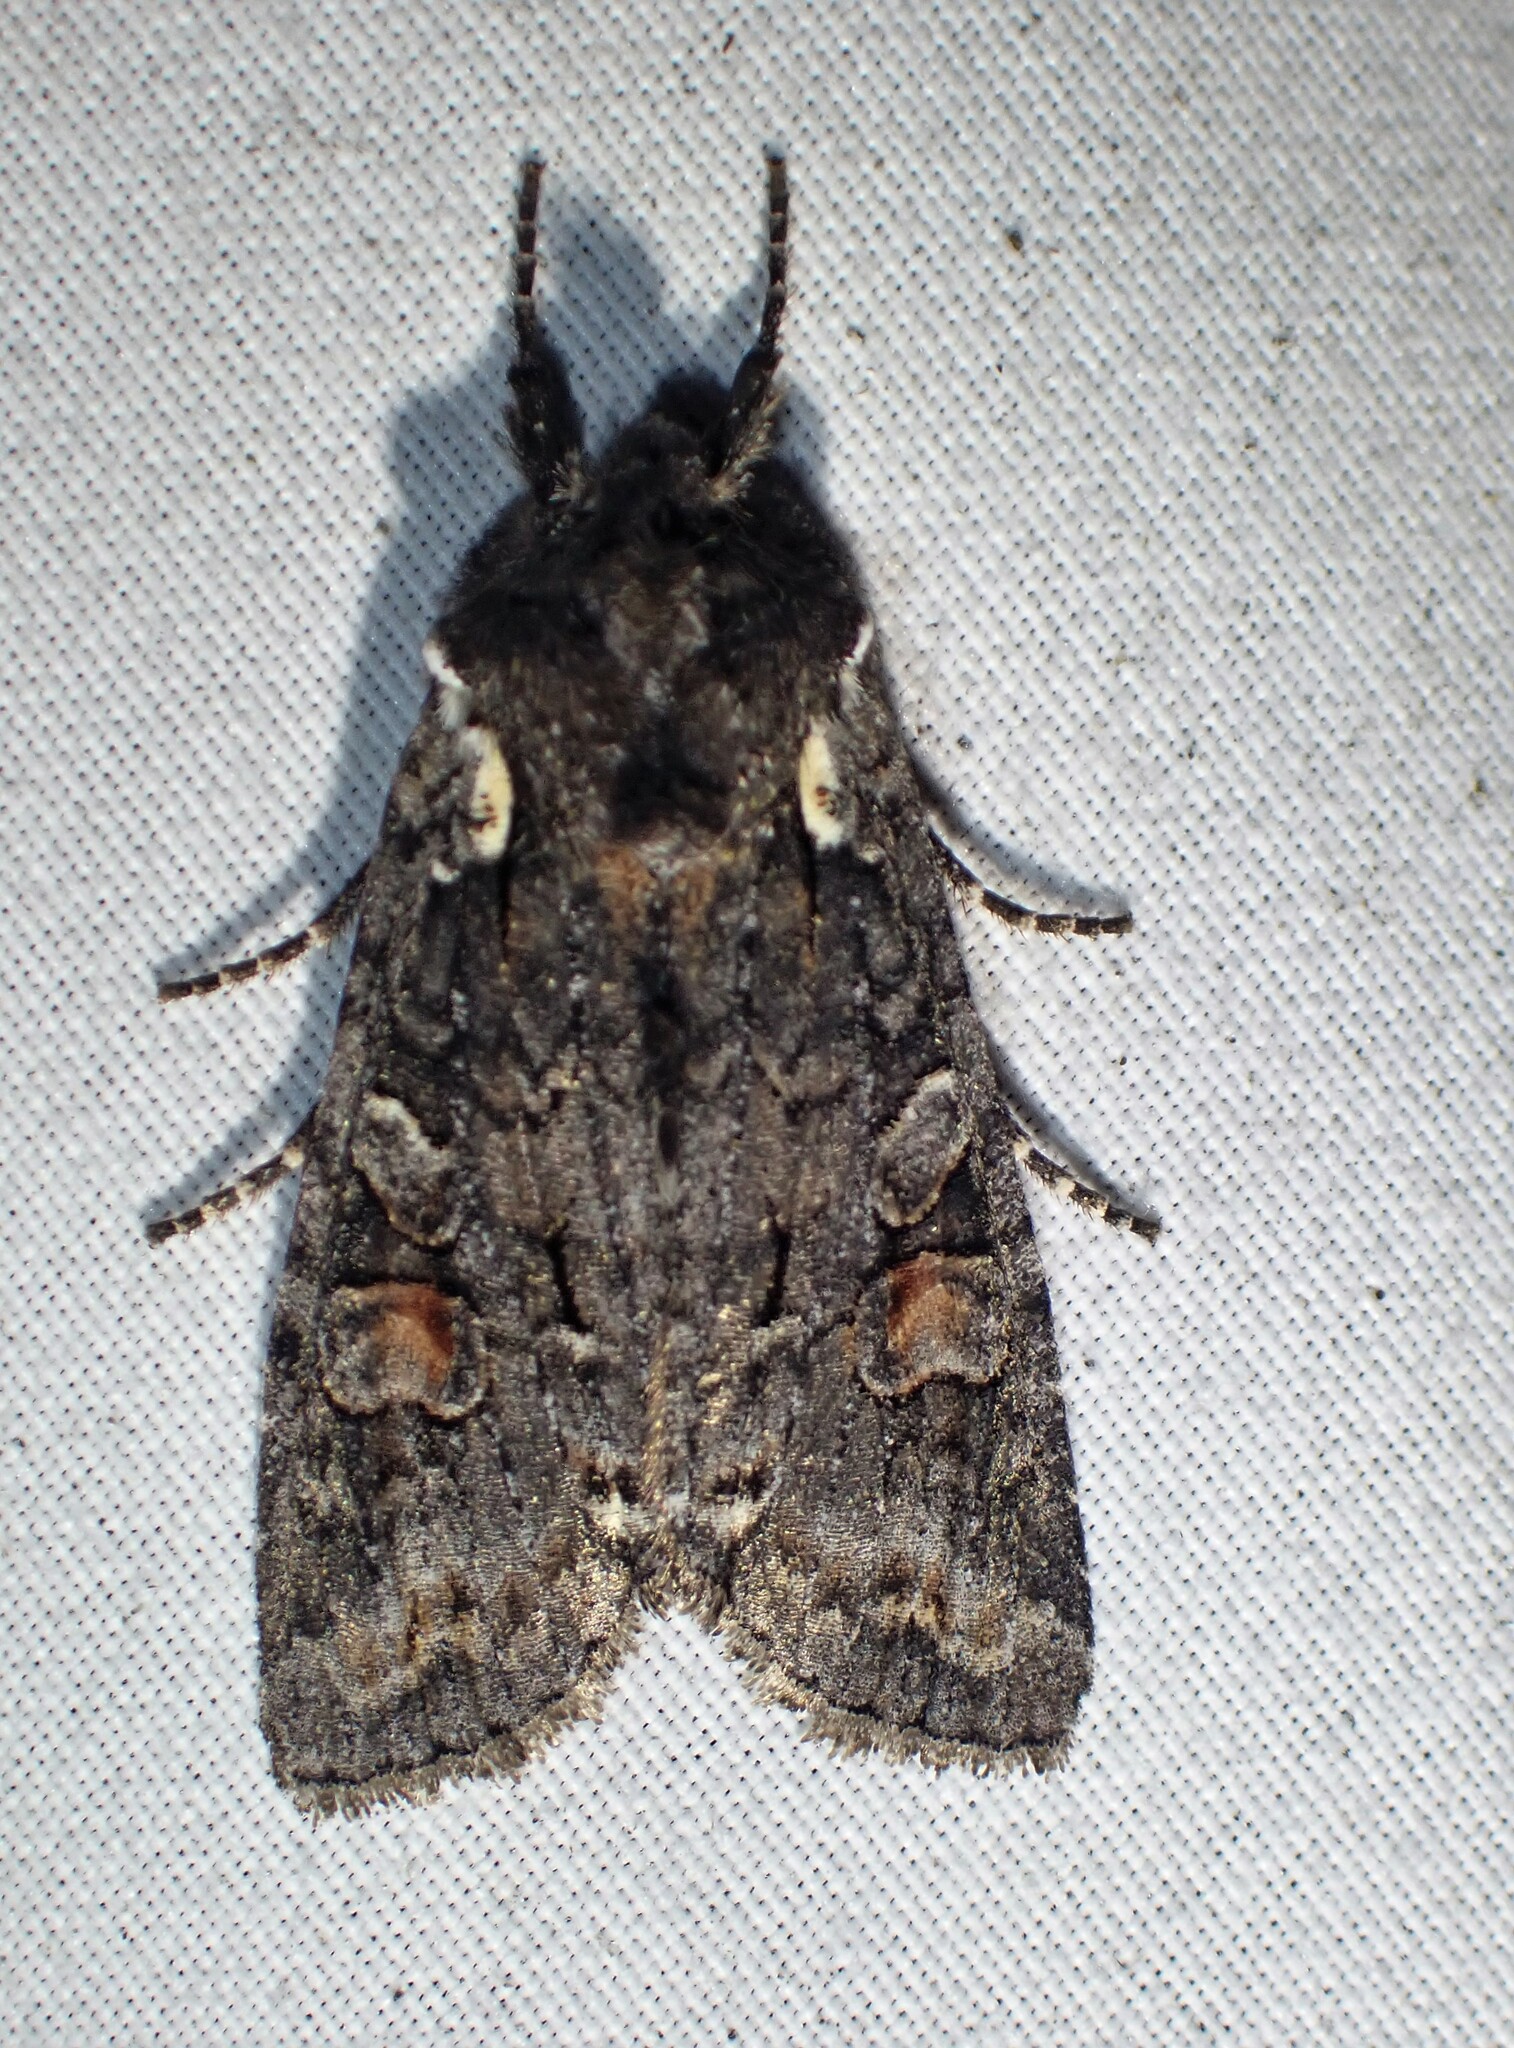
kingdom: Animalia
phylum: Arthropoda
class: Insecta
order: Lepidoptera
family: Noctuidae
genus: Lithophane
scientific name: Lithophane pexata
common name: Plush-naped pinion moth
